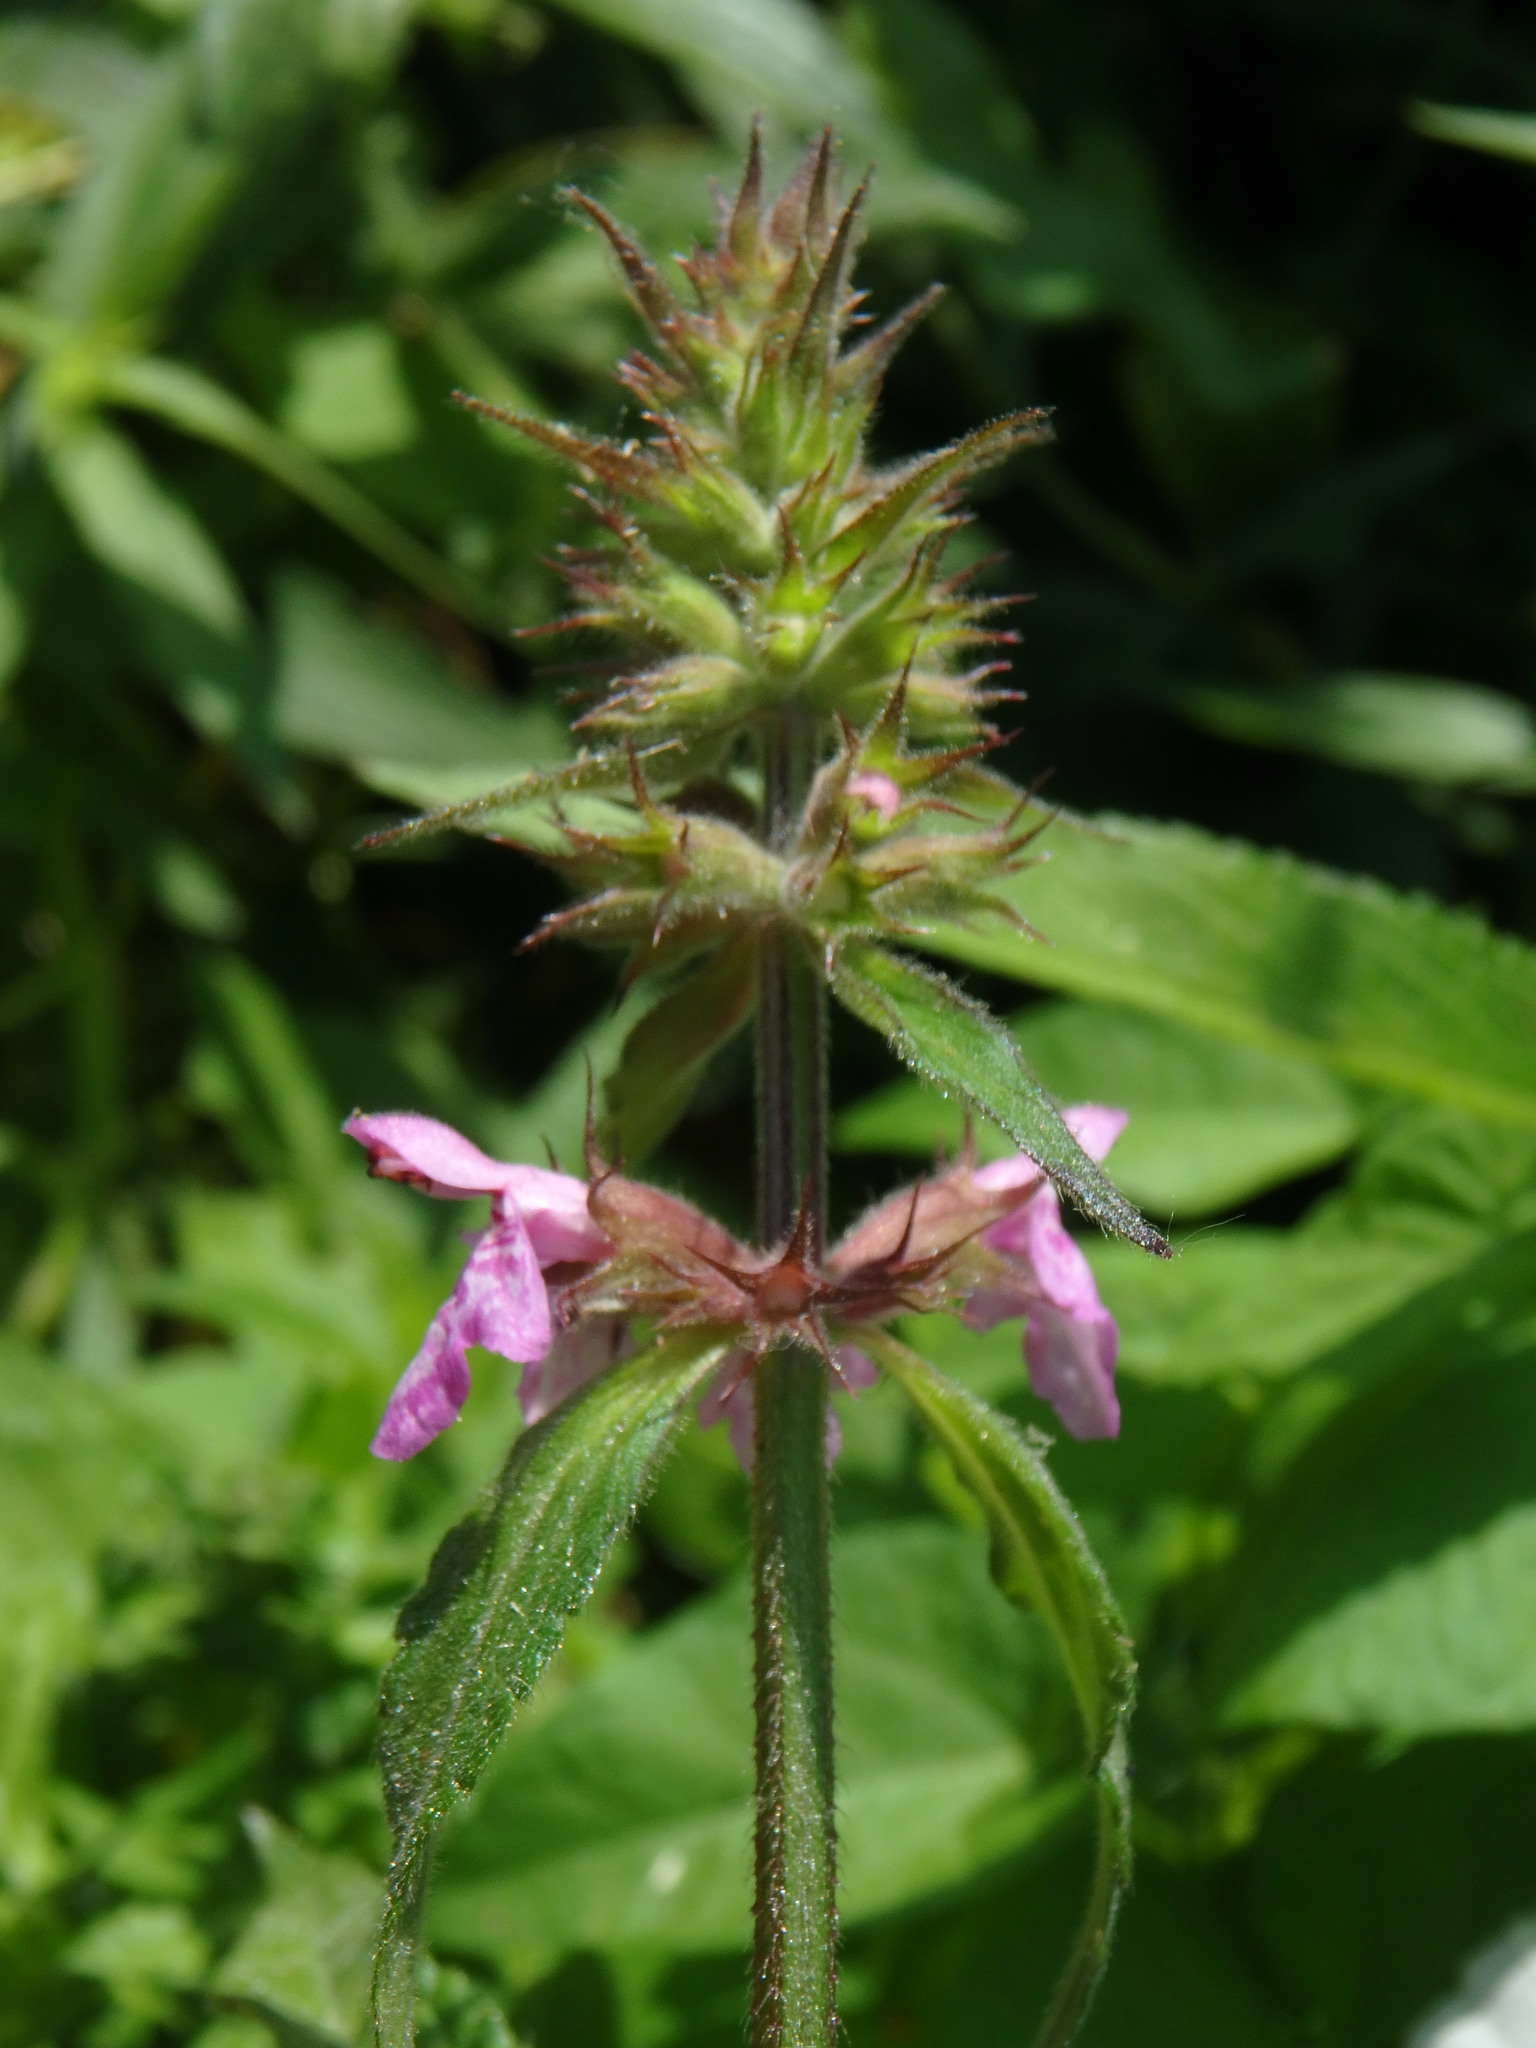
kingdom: Plantae
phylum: Tracheophyta
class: Magnoliopsida
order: Lamiales
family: Lamiaceae
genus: Stachys
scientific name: Stachys ambigua
